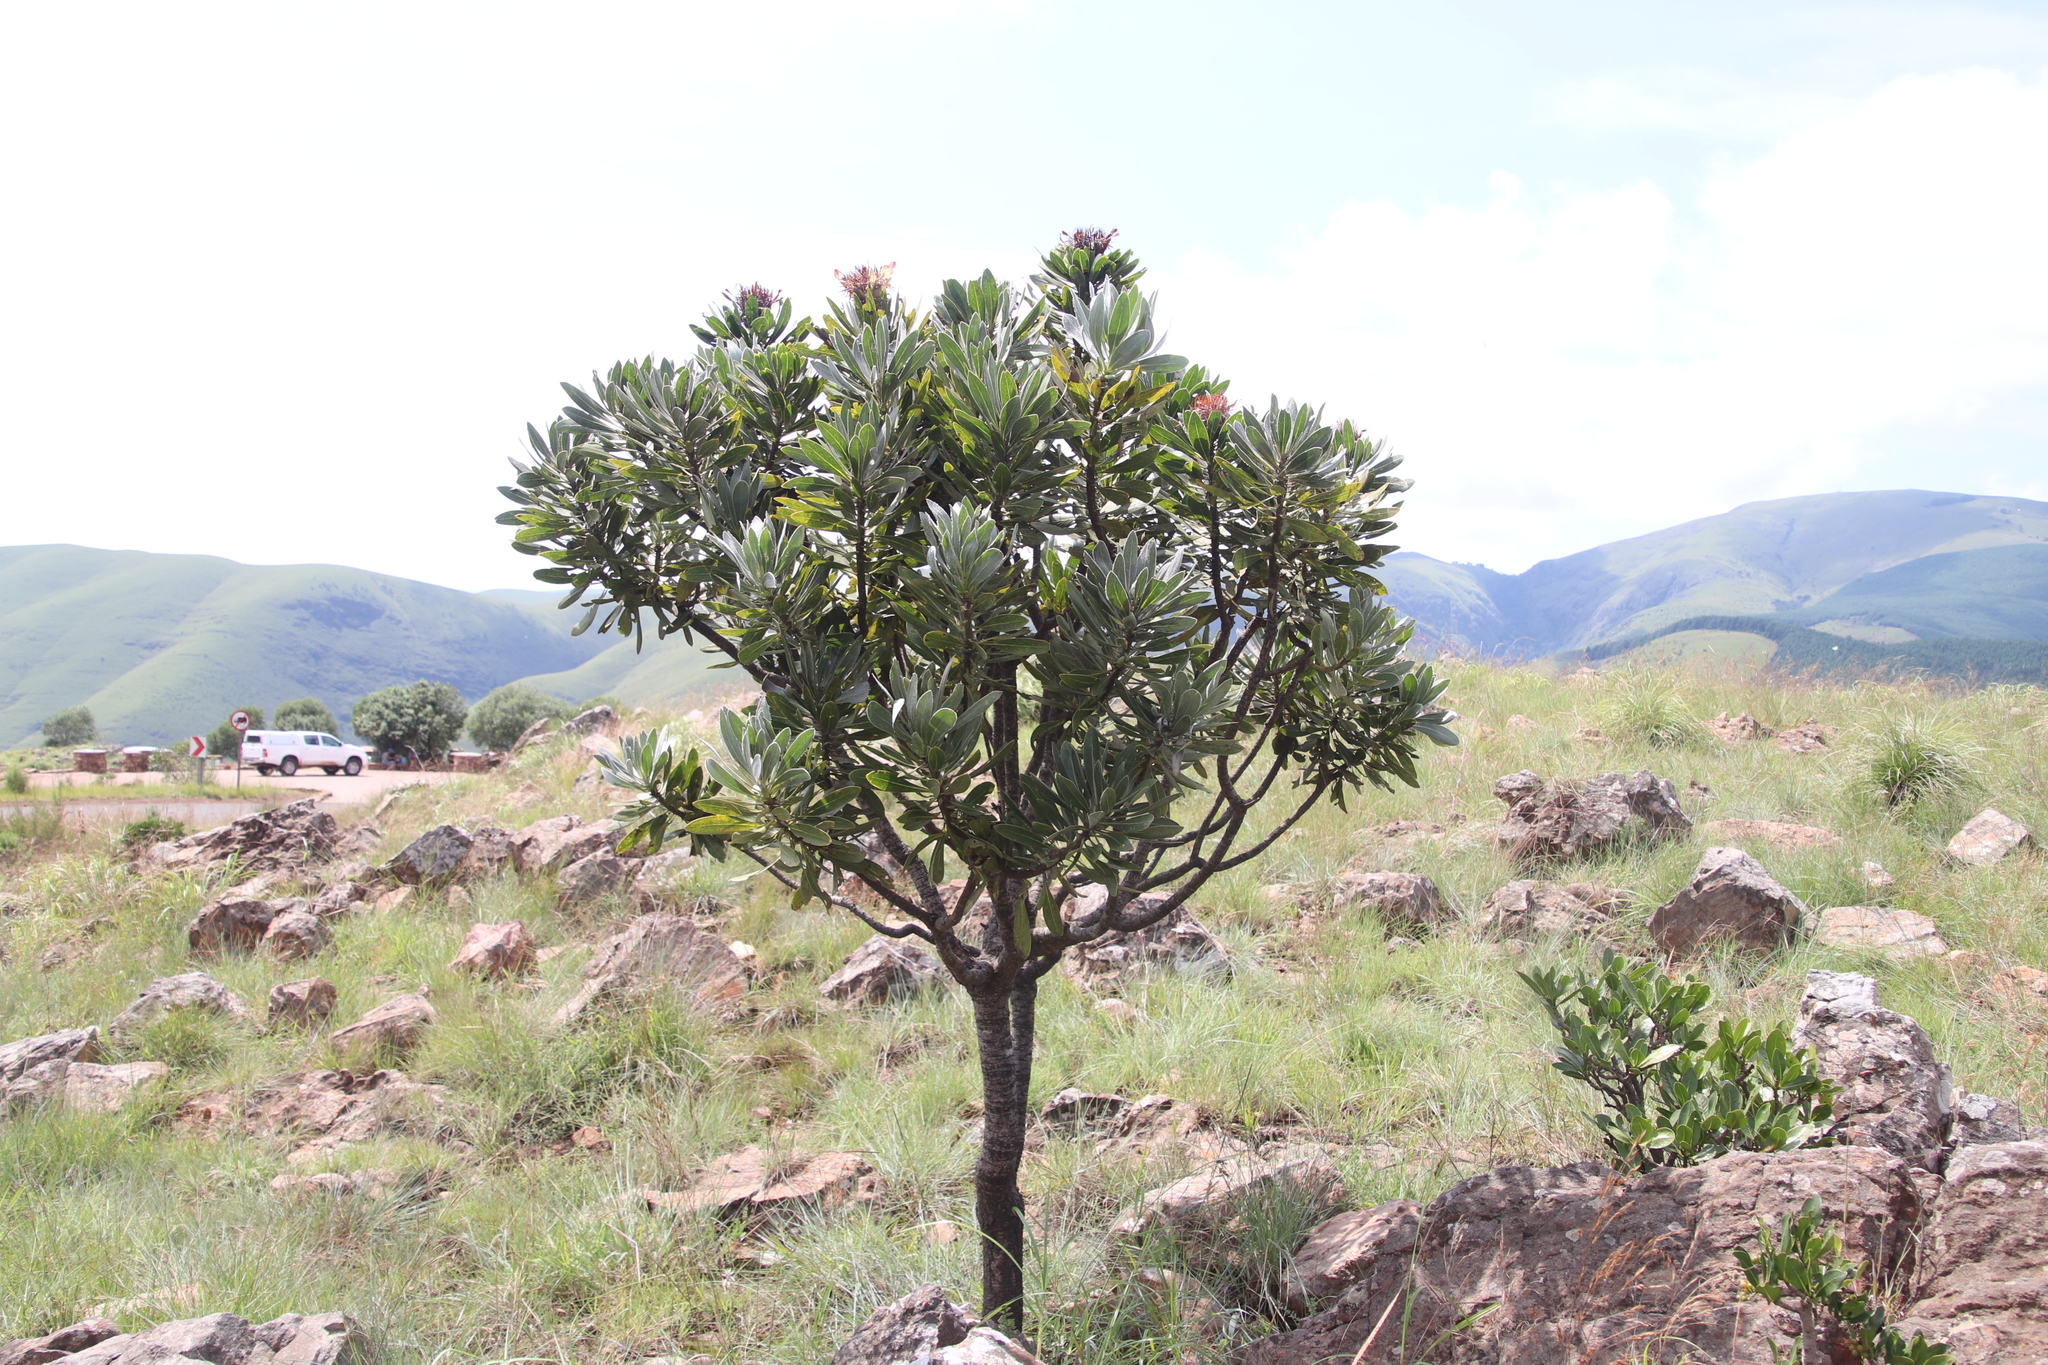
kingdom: Plantae
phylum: Tracheophyta
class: Magnoliopsida
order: Proteales
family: Proteaceae
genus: Protea
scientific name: Protea roupelliae
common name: Silver sugarbush
